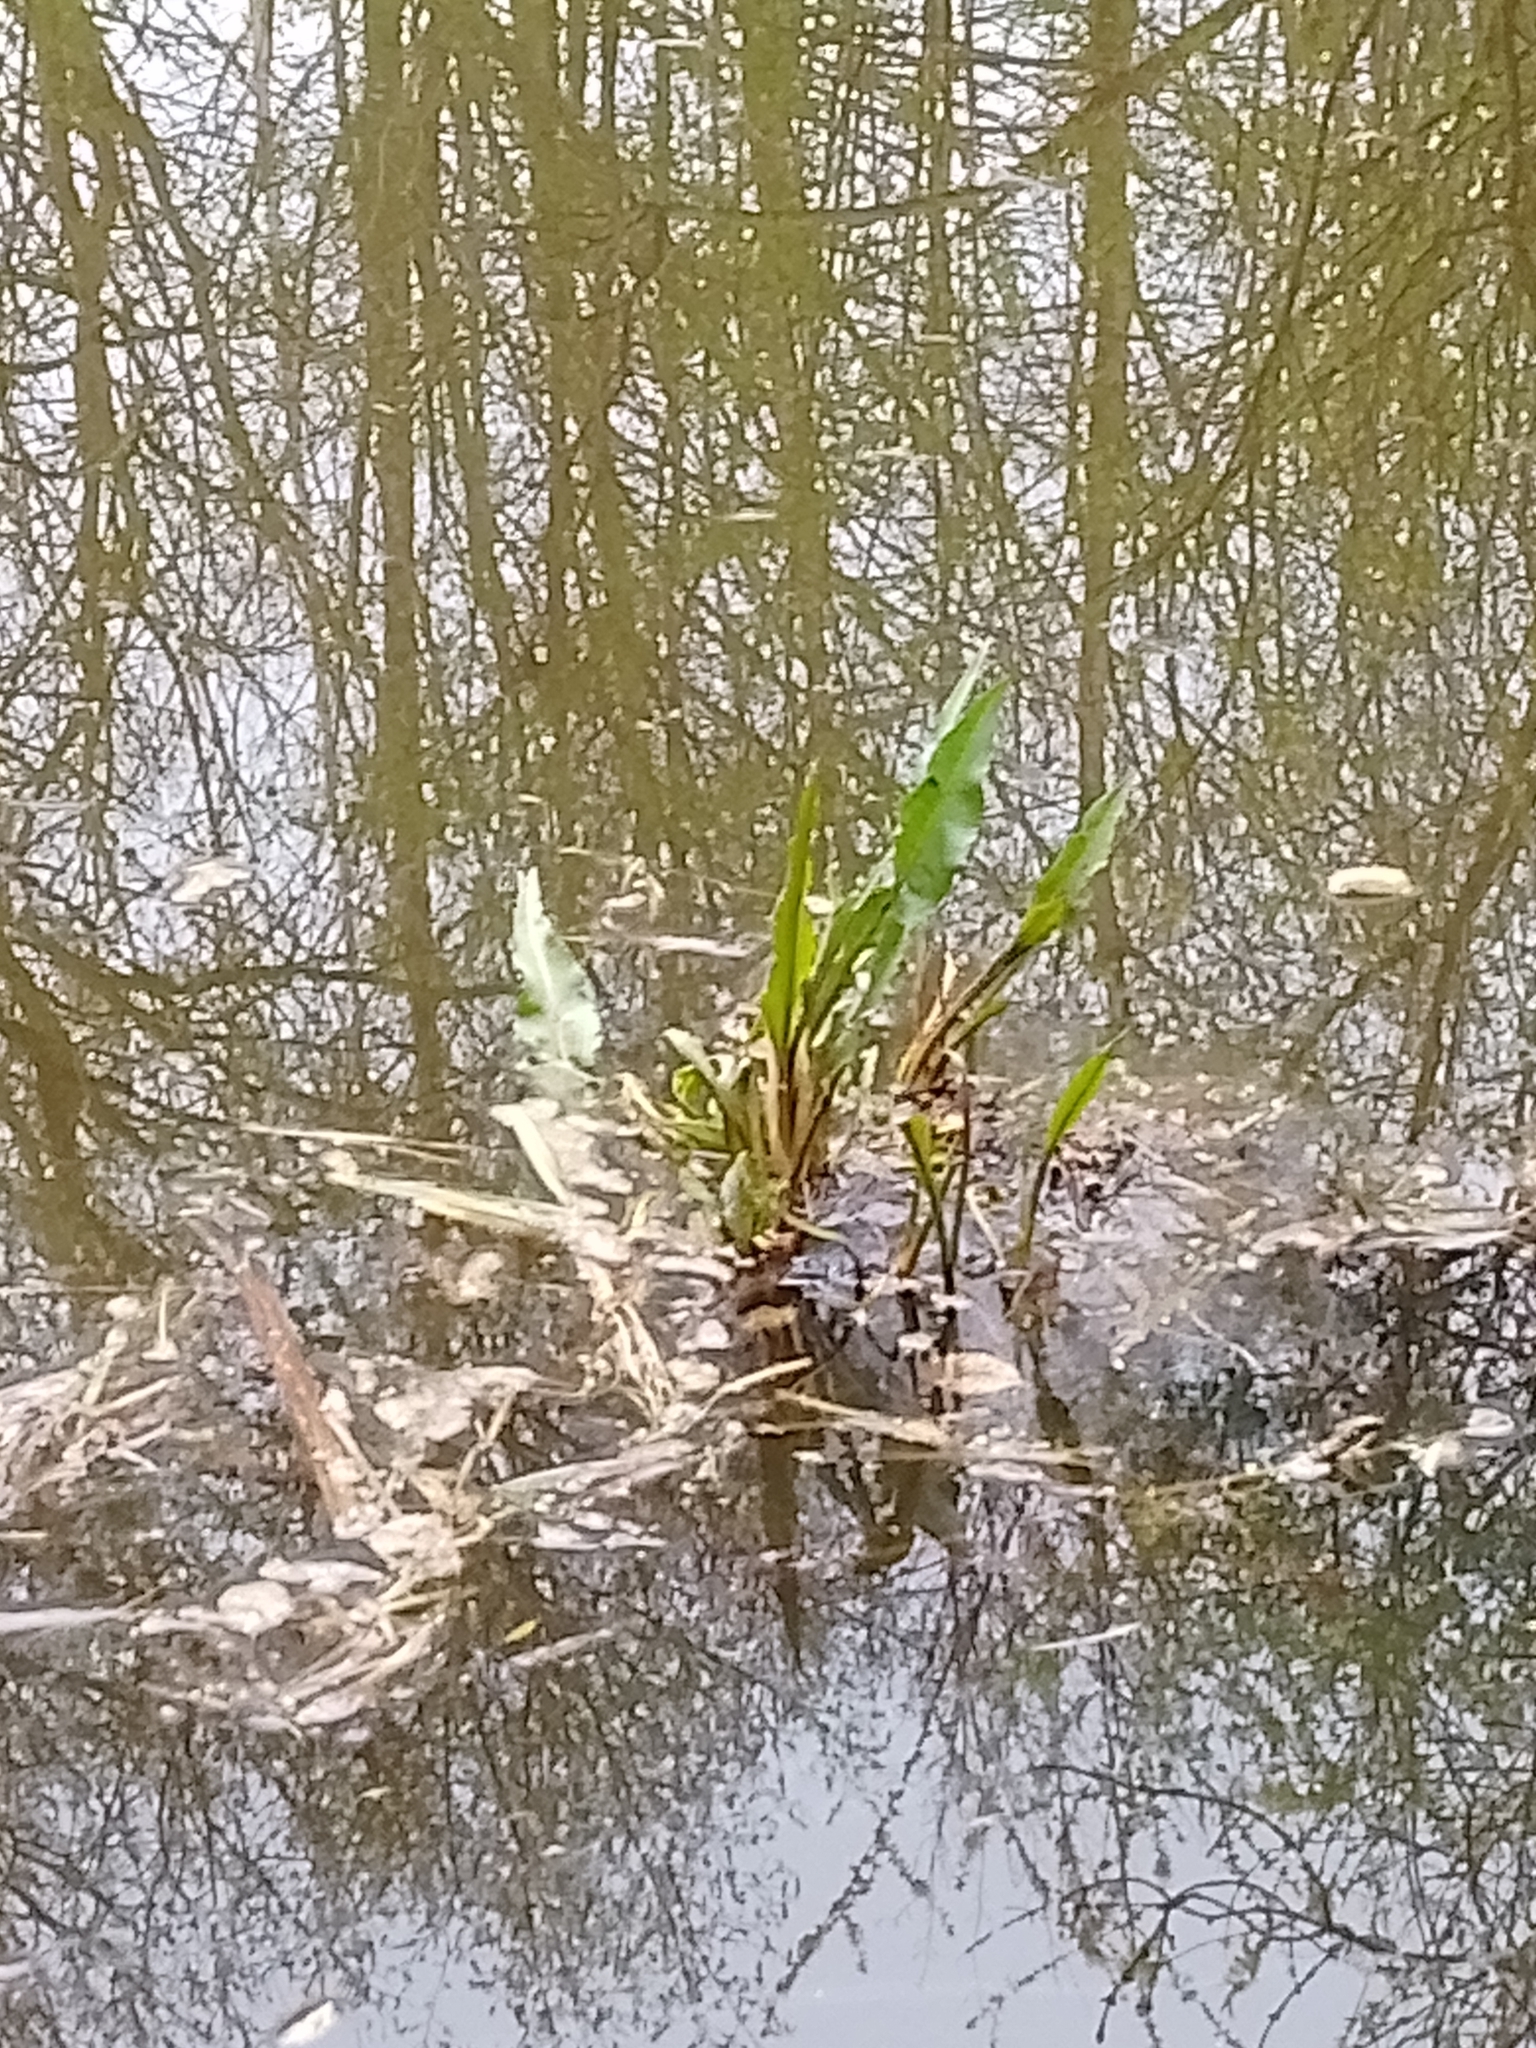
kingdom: Plantae
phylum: Tracheophyta
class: Magnoliopsida
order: Caryophyllales
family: Polygonaceae
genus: Rumex
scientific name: Rumex hydrolapathum
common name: Water dock
